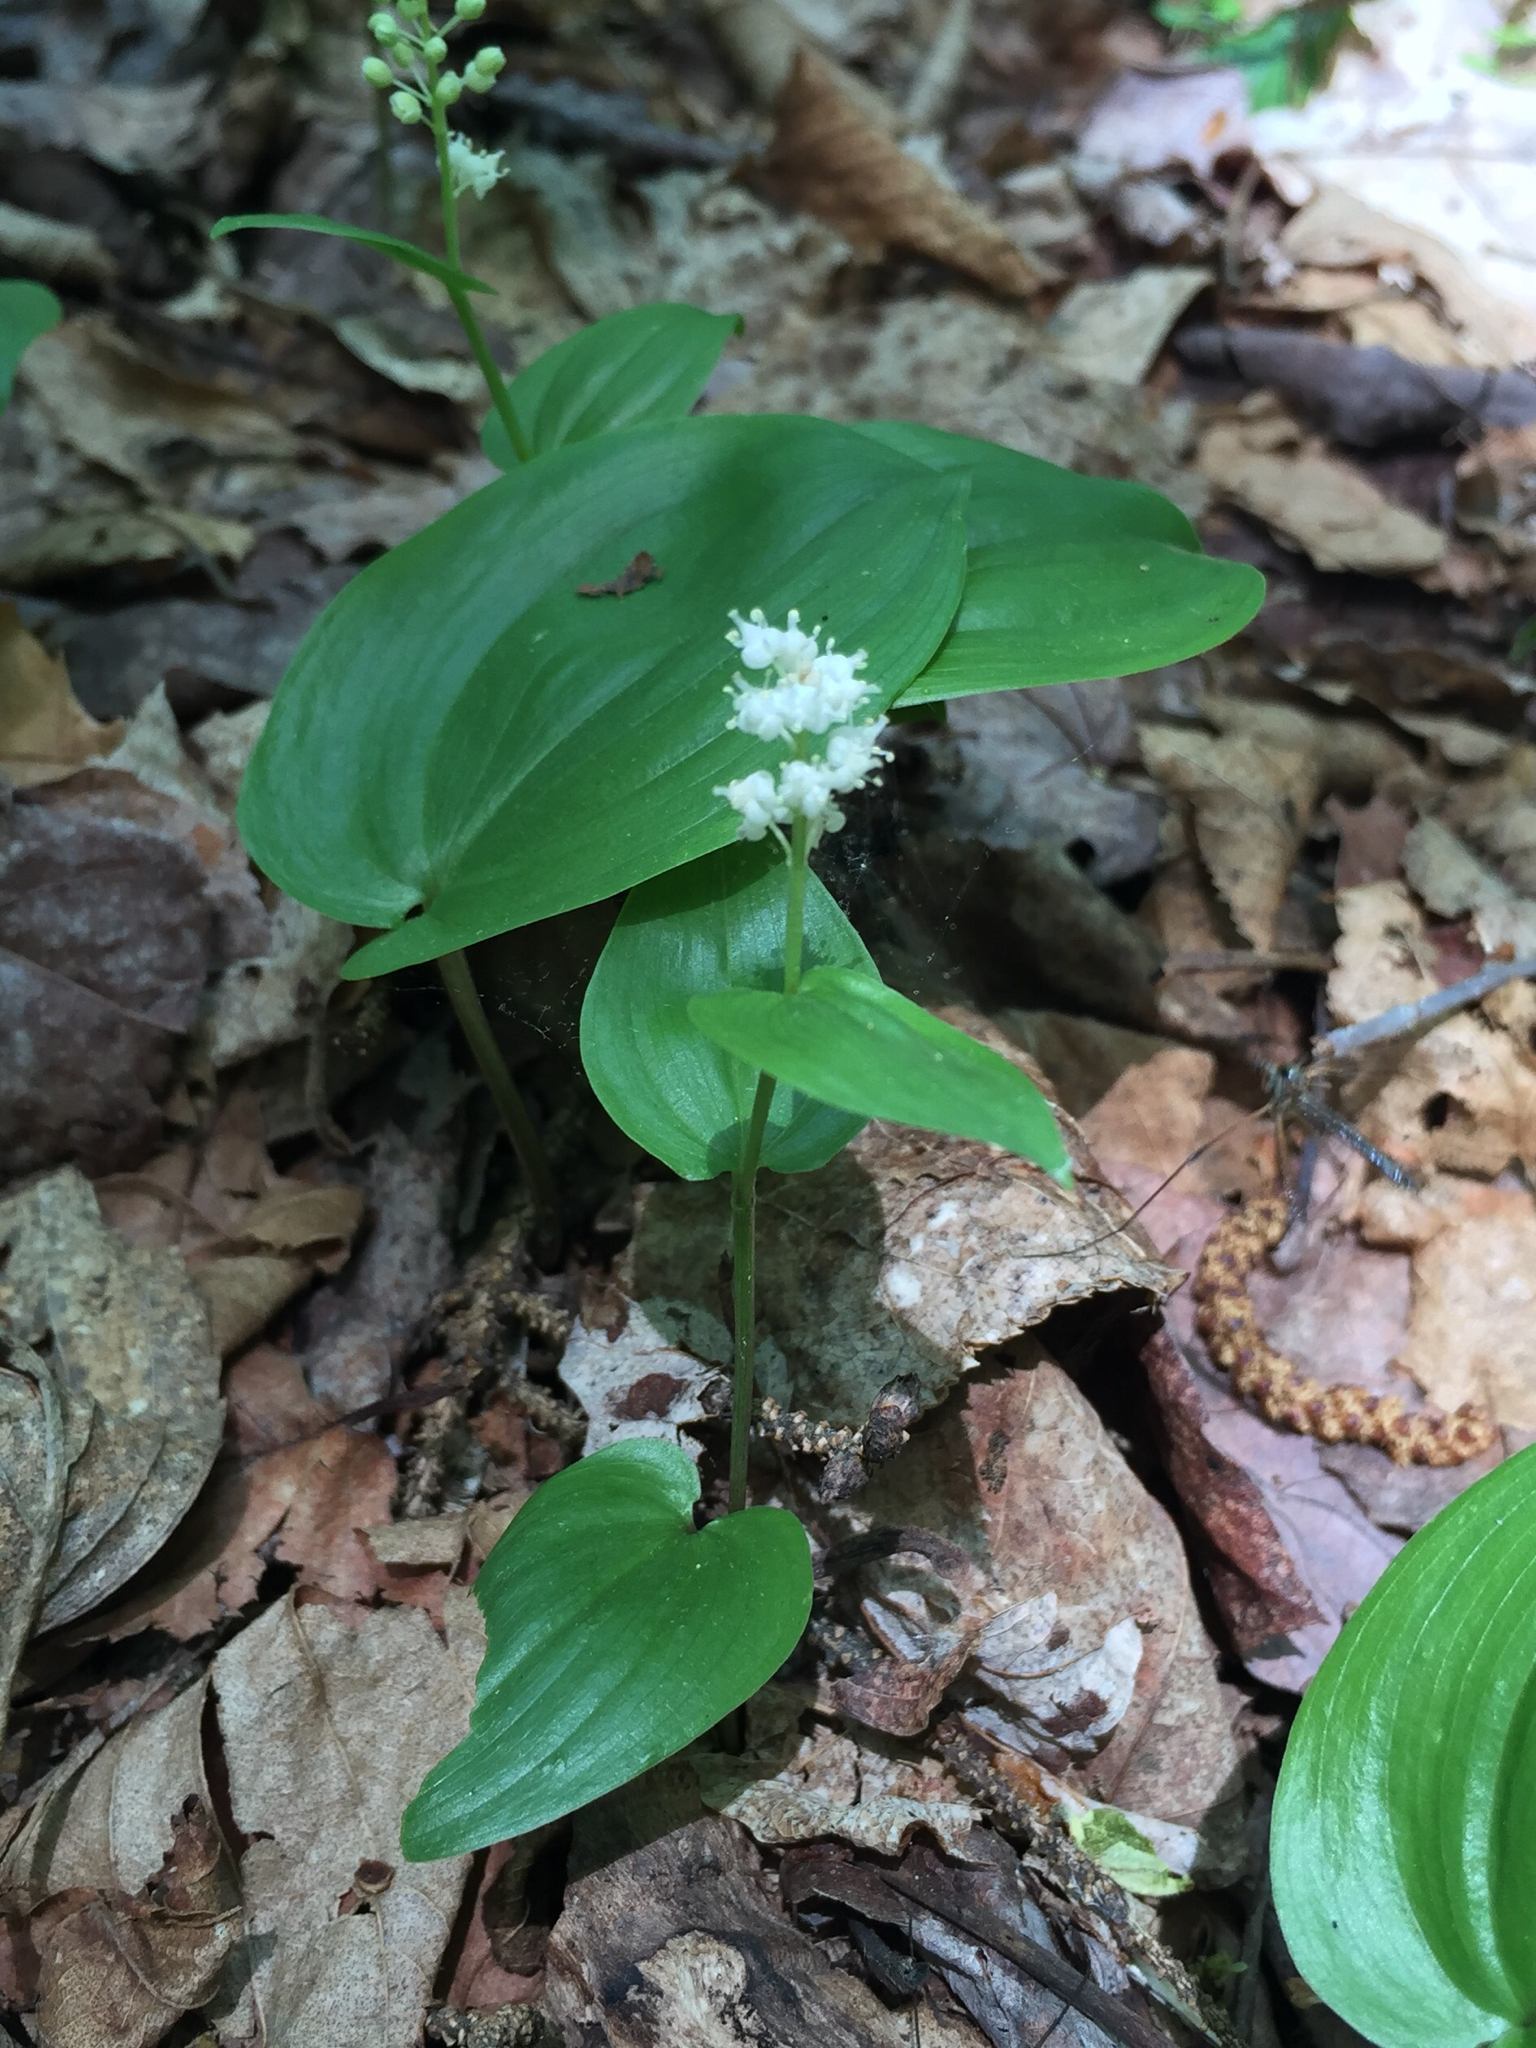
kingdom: Plantae
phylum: Tracheophyta
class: Liliopsida
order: Asparagales
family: Asparagaceae
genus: Maianthemum
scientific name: Maianthemum canadense
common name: False lily-of-the-valley
